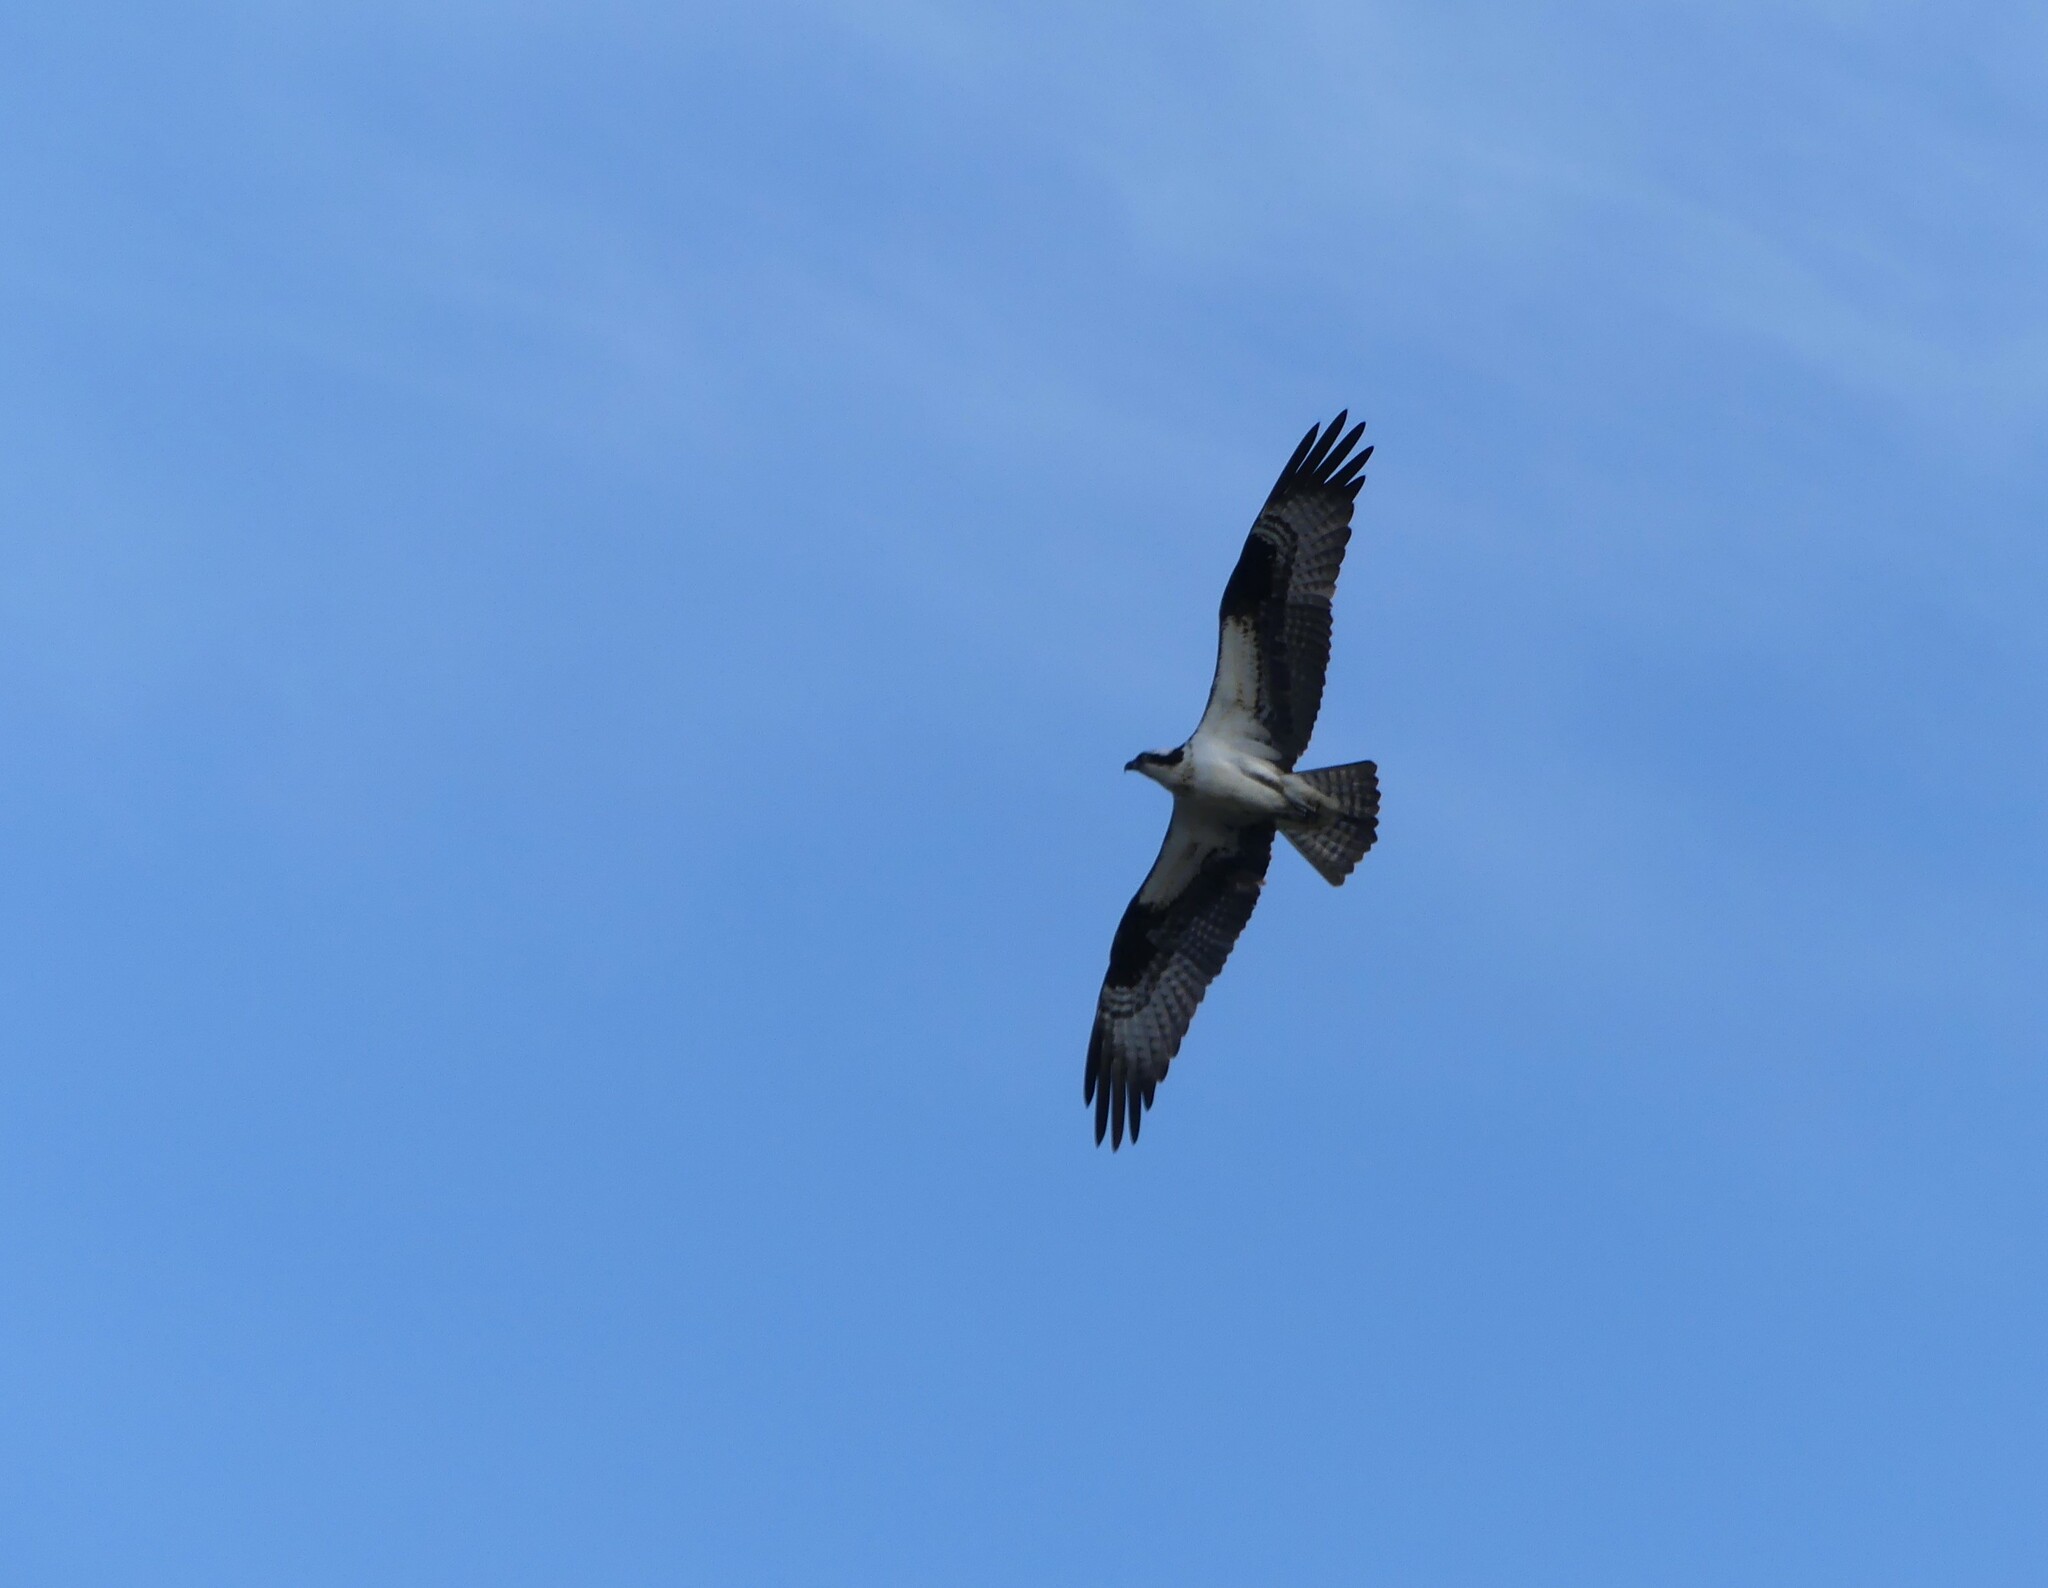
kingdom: Animalia
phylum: Chordata
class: Aves
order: Accipitriformes
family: Pandionidae
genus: Pandion
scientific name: Pandion haliaetus
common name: Osprey
